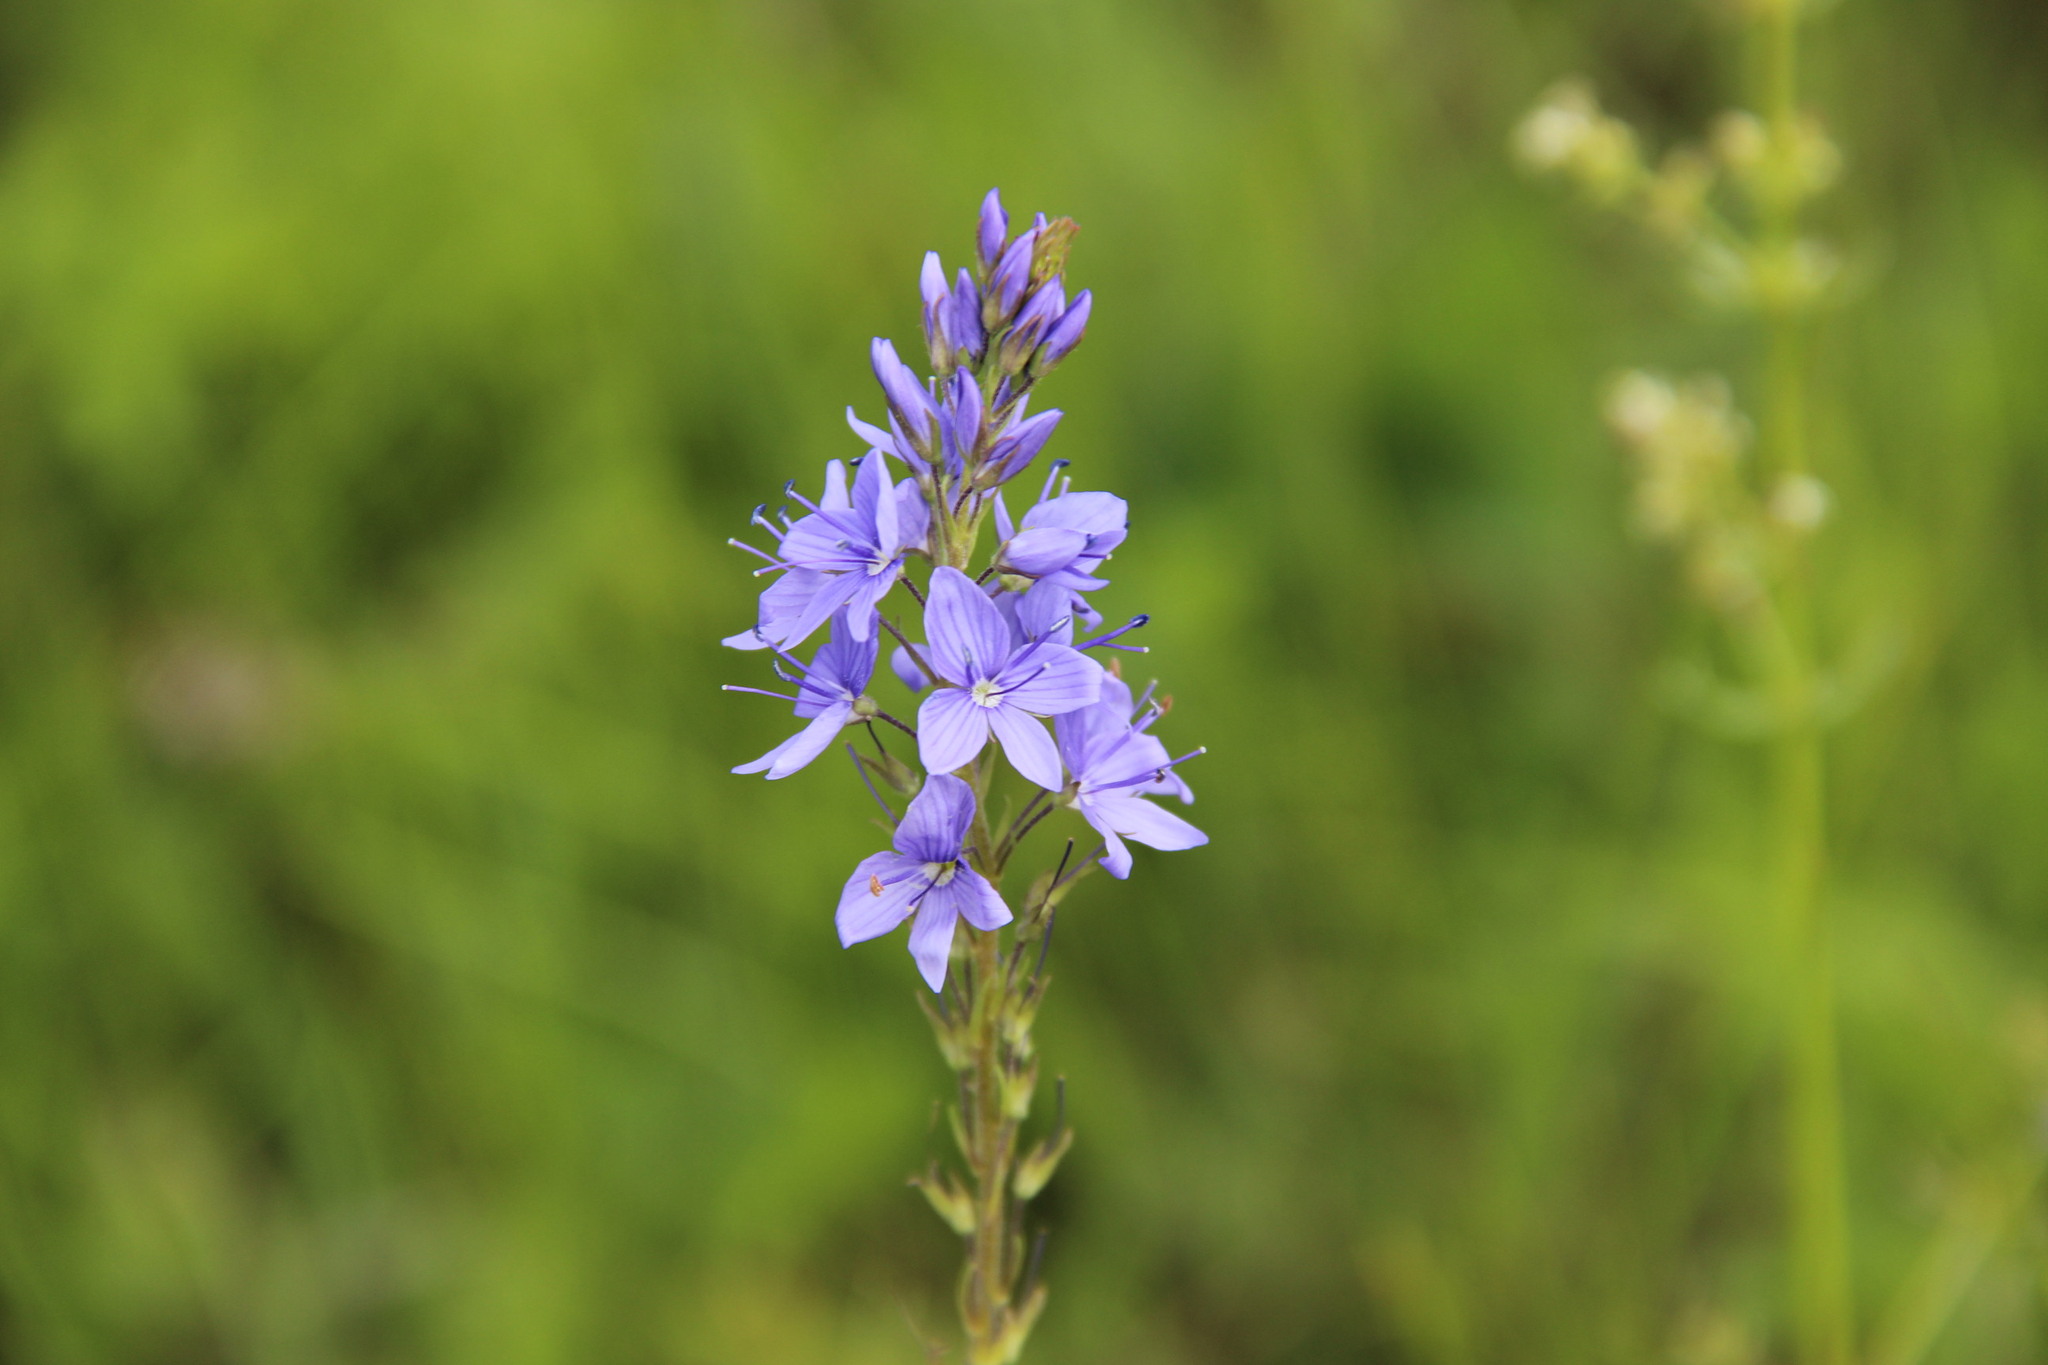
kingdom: Plantae
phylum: Tracheophyta
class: Magnoliopsida
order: Lamiales
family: Plantaginaceae
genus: Veronica
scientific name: Veronica teucrium
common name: Large speedwell
